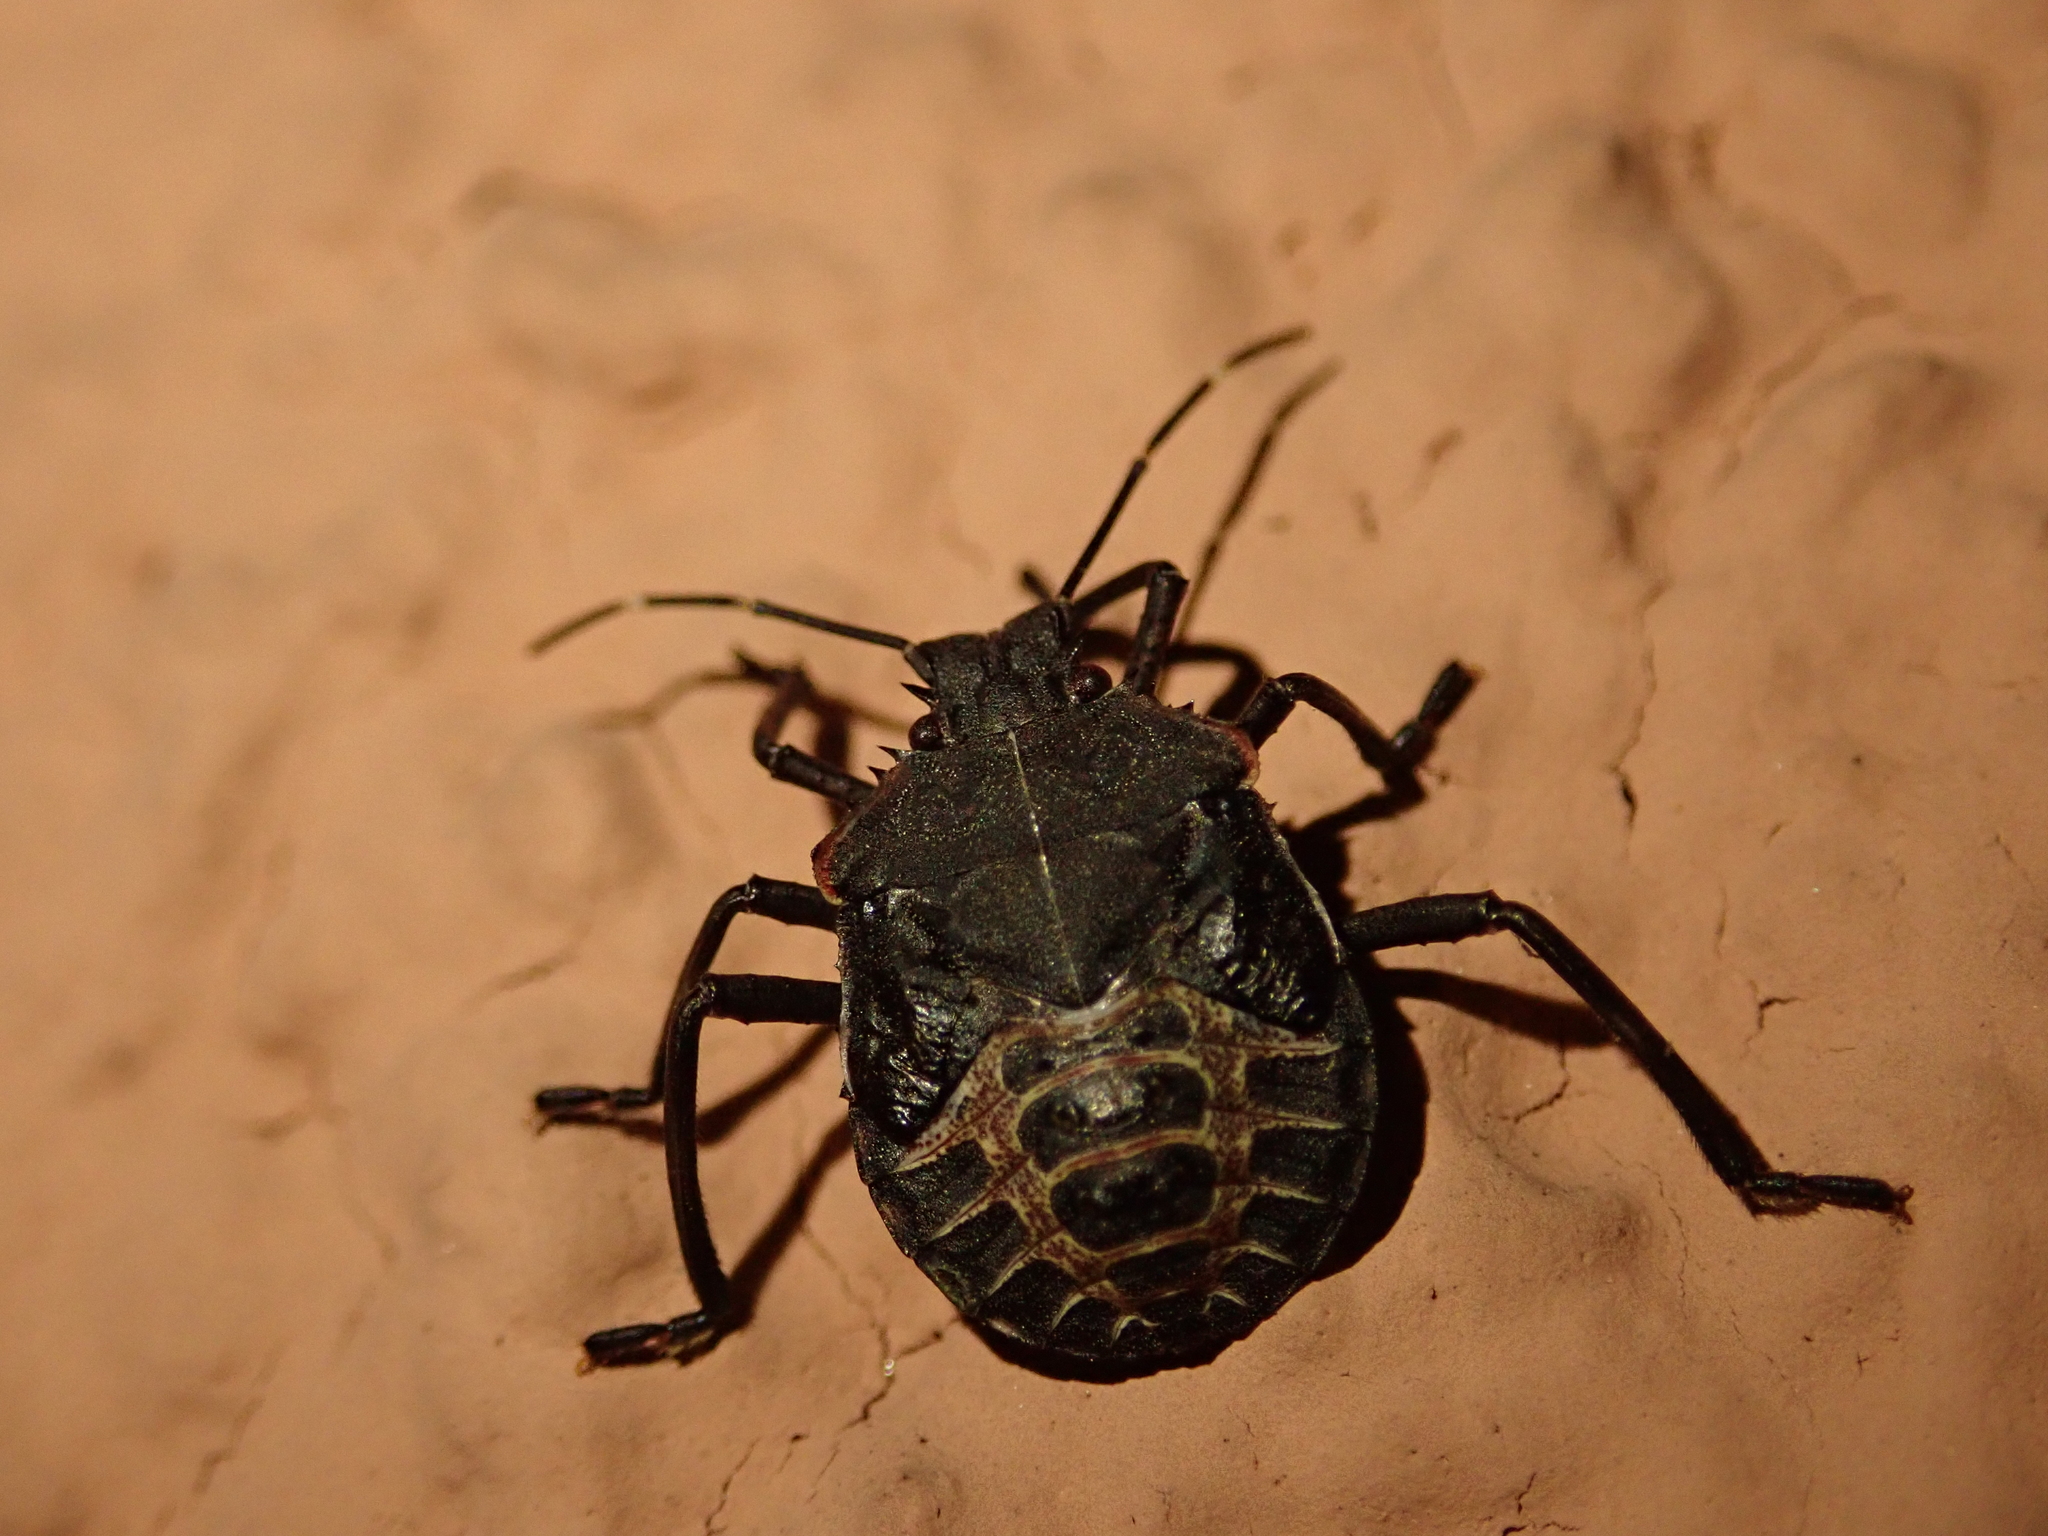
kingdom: Animalia
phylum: Arthropoda
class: Insecta
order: Hemiptera
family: Pentatomidae
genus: Halyomorpha
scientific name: Halyomorpha halys
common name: Brown marmorated stink bug
